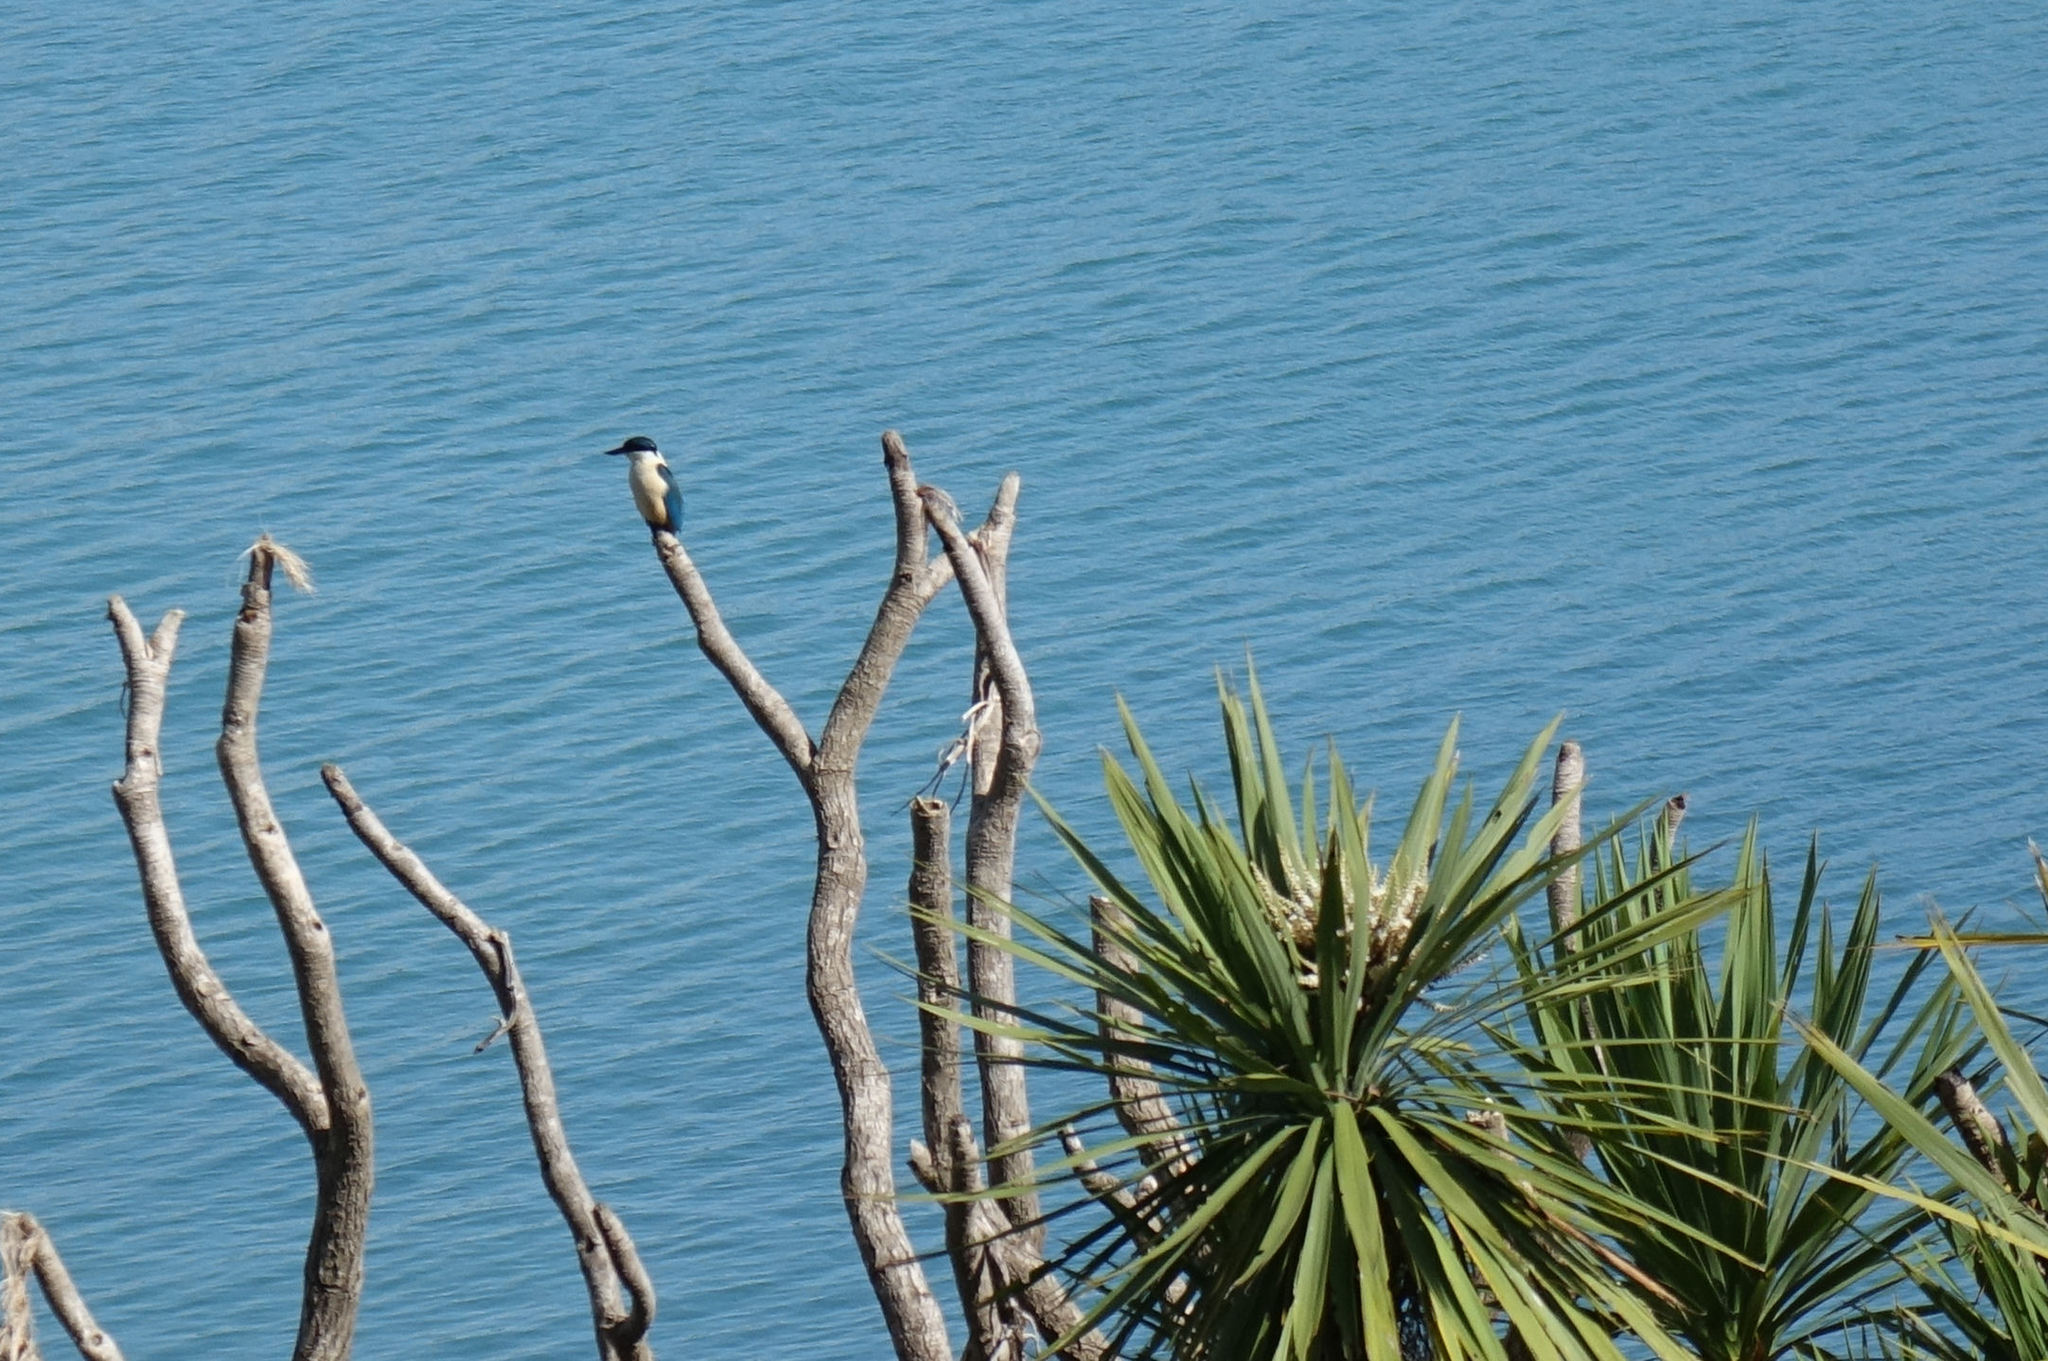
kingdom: Animalia
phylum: Chordata
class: Aves
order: Coraciiformes
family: Alcedinidae
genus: Todiramphus
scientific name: Todiramphus sanctus
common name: Sacred kingfisher
